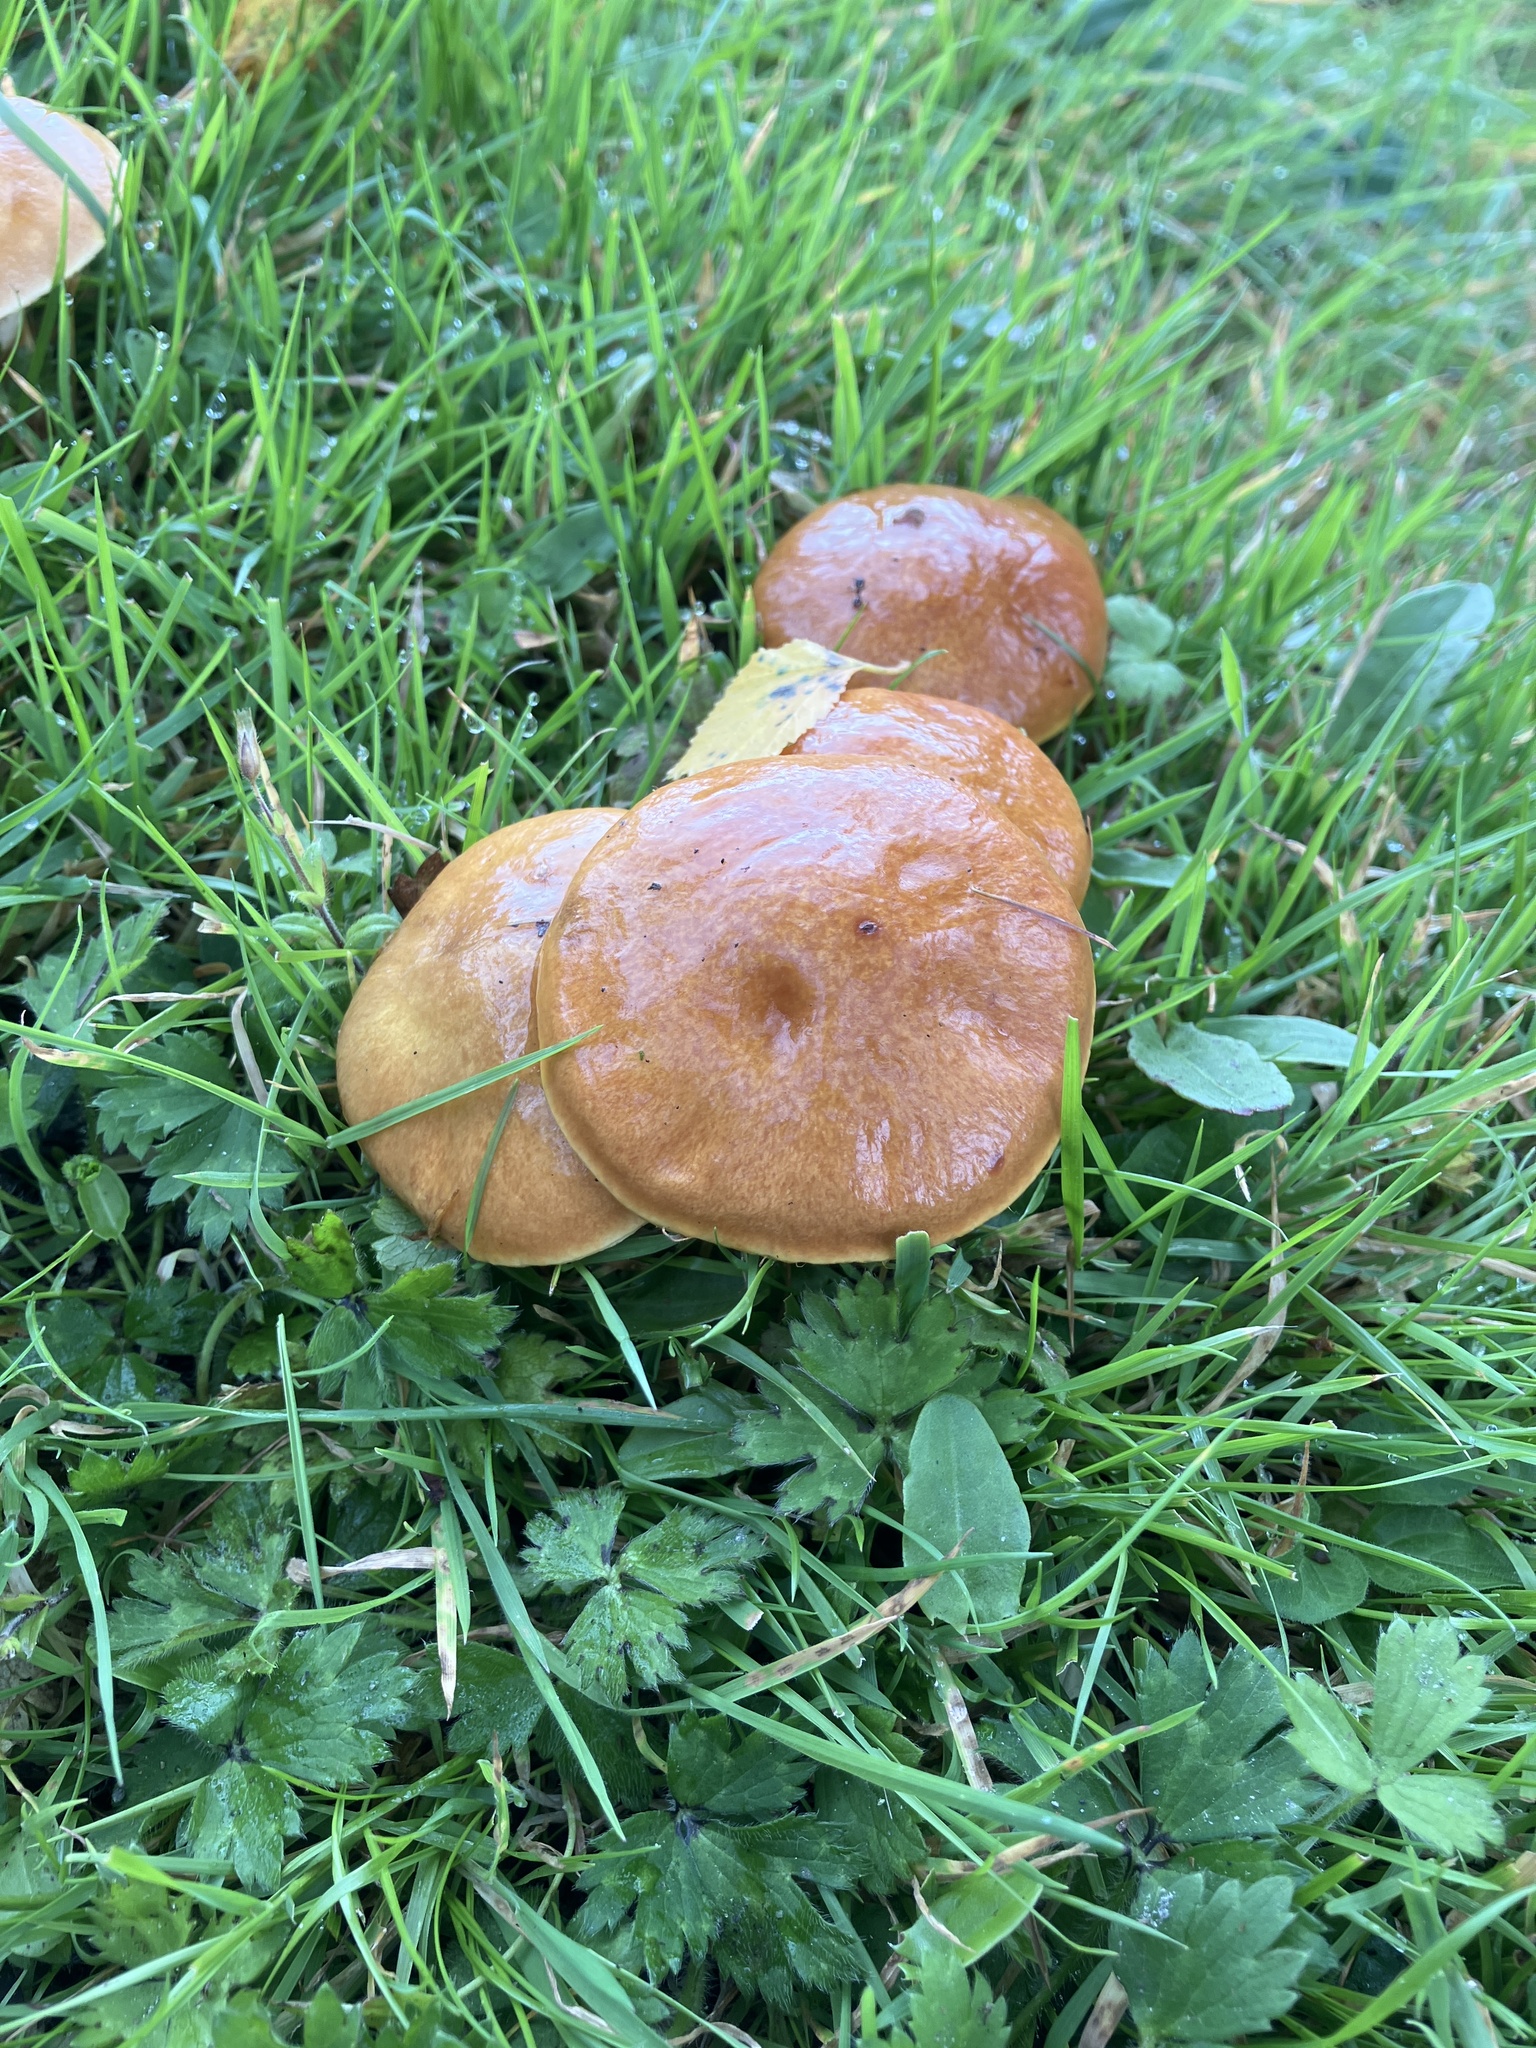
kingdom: Fungi
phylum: Basidiomycota
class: Agaricomycetes
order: Boletales
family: Suillaceae
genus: Suillus
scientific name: Suillus grevillei
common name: Larch bolete
